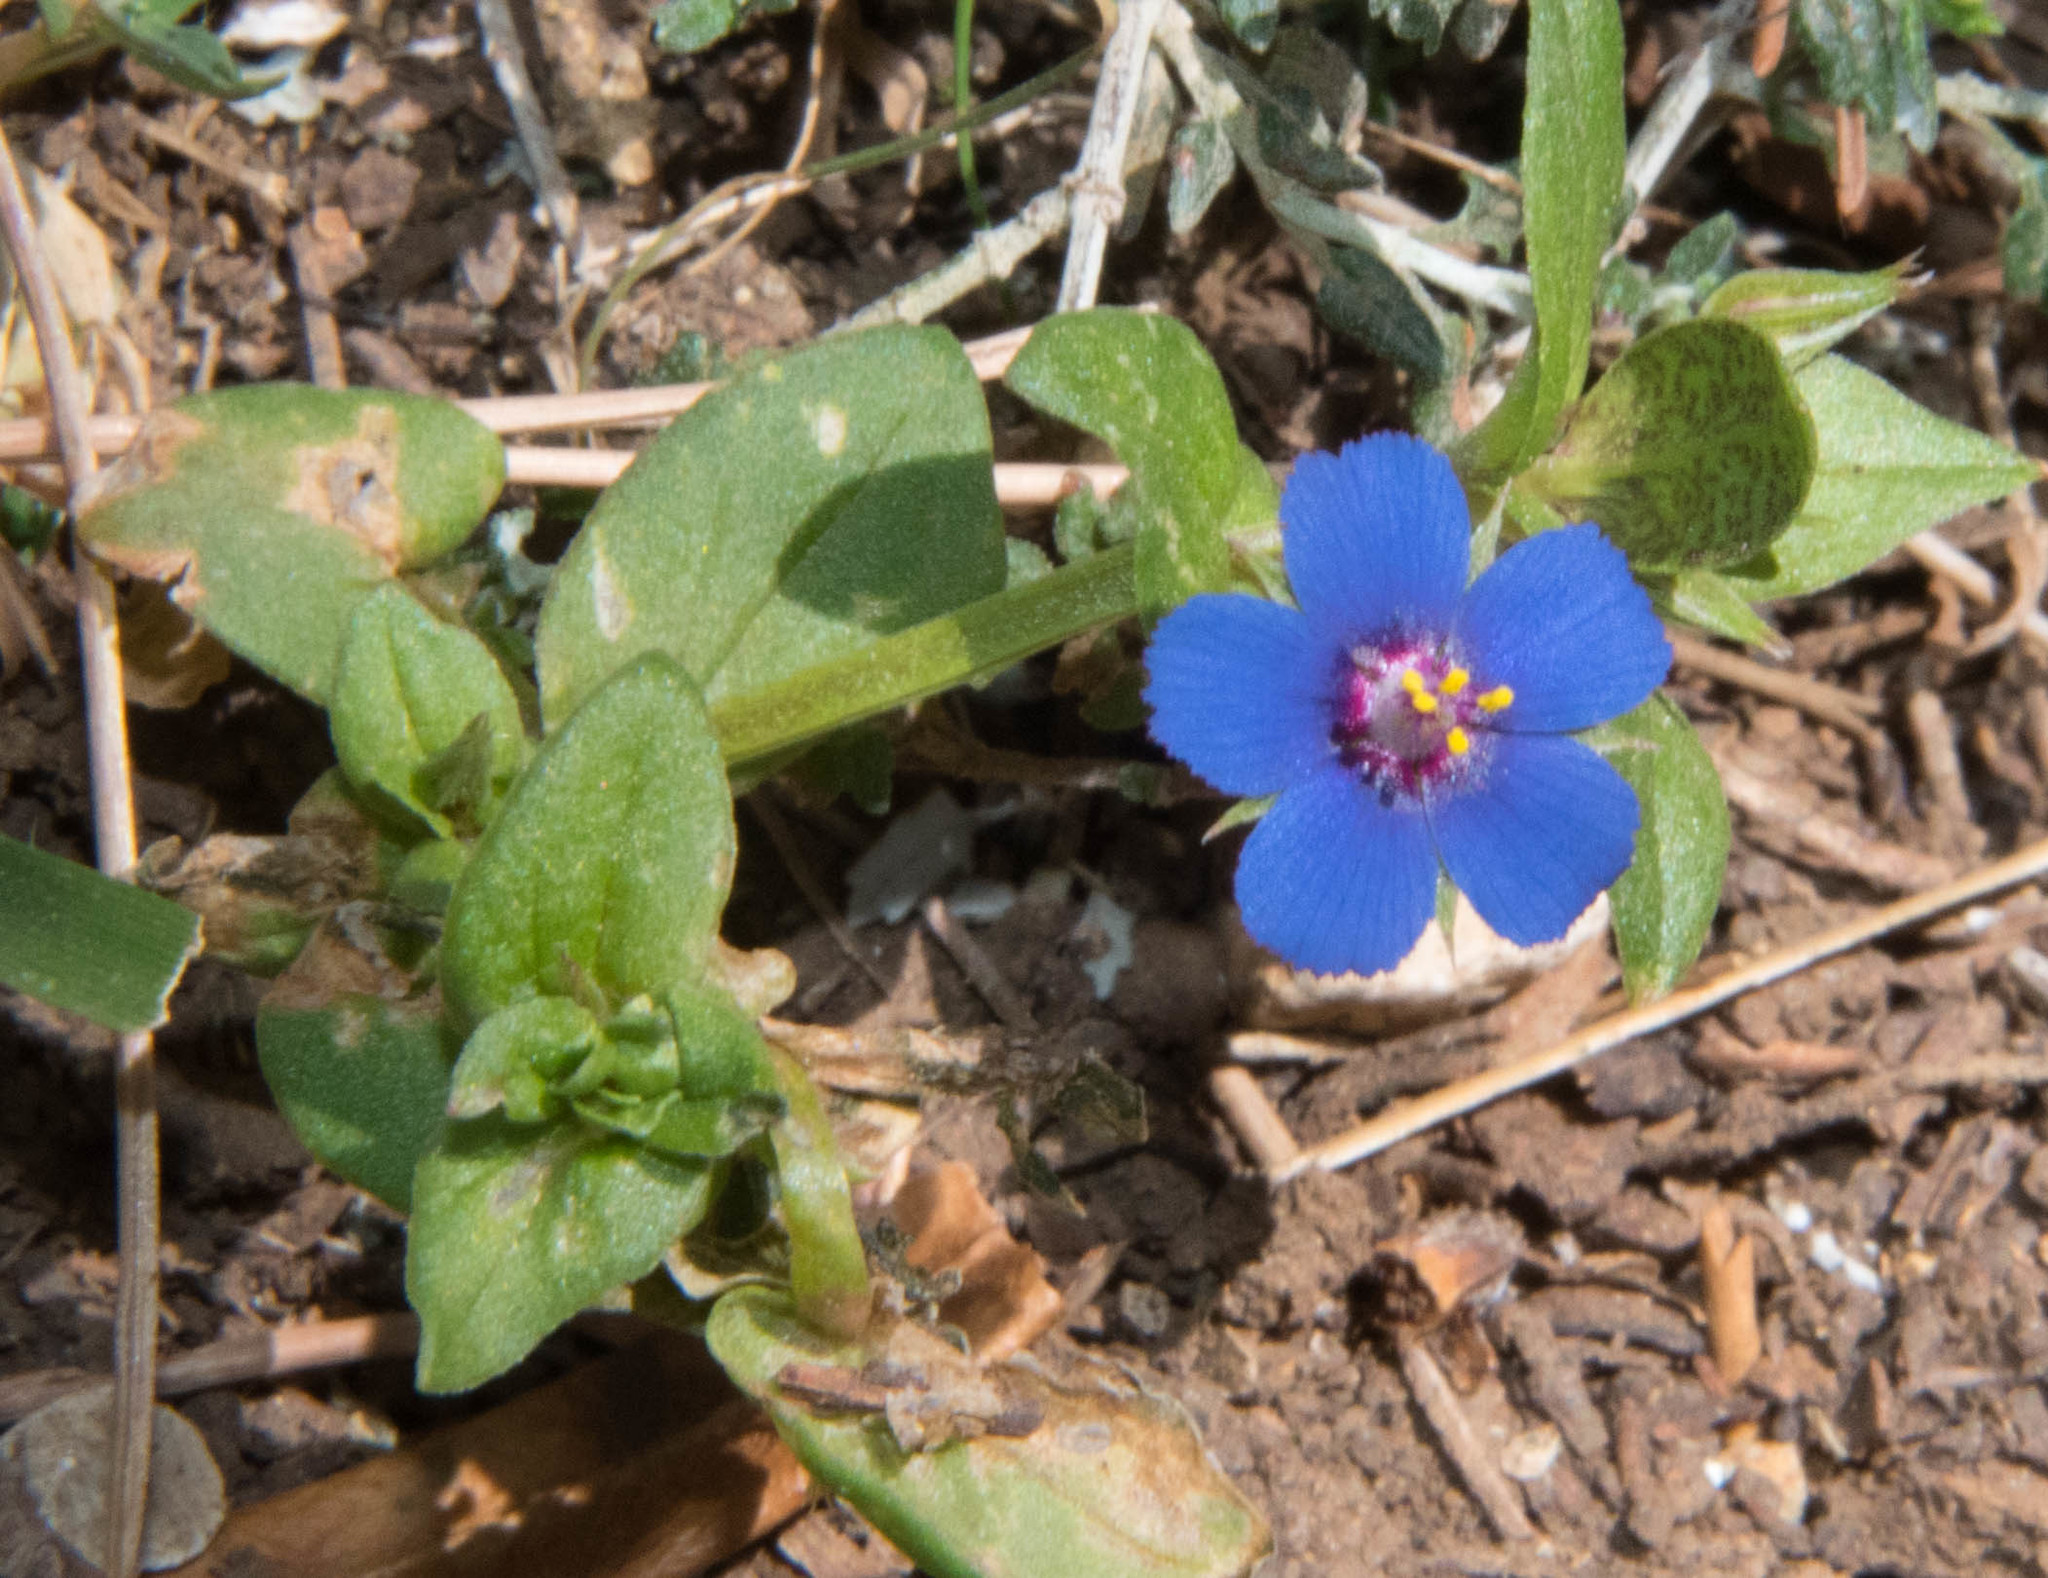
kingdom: Plantae
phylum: Tracheophyta
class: Magnoliopsida
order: Ericales
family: Primulaceae
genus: Lysimachia
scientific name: Lysimachia arvensis
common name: Scarlet pimpernel
